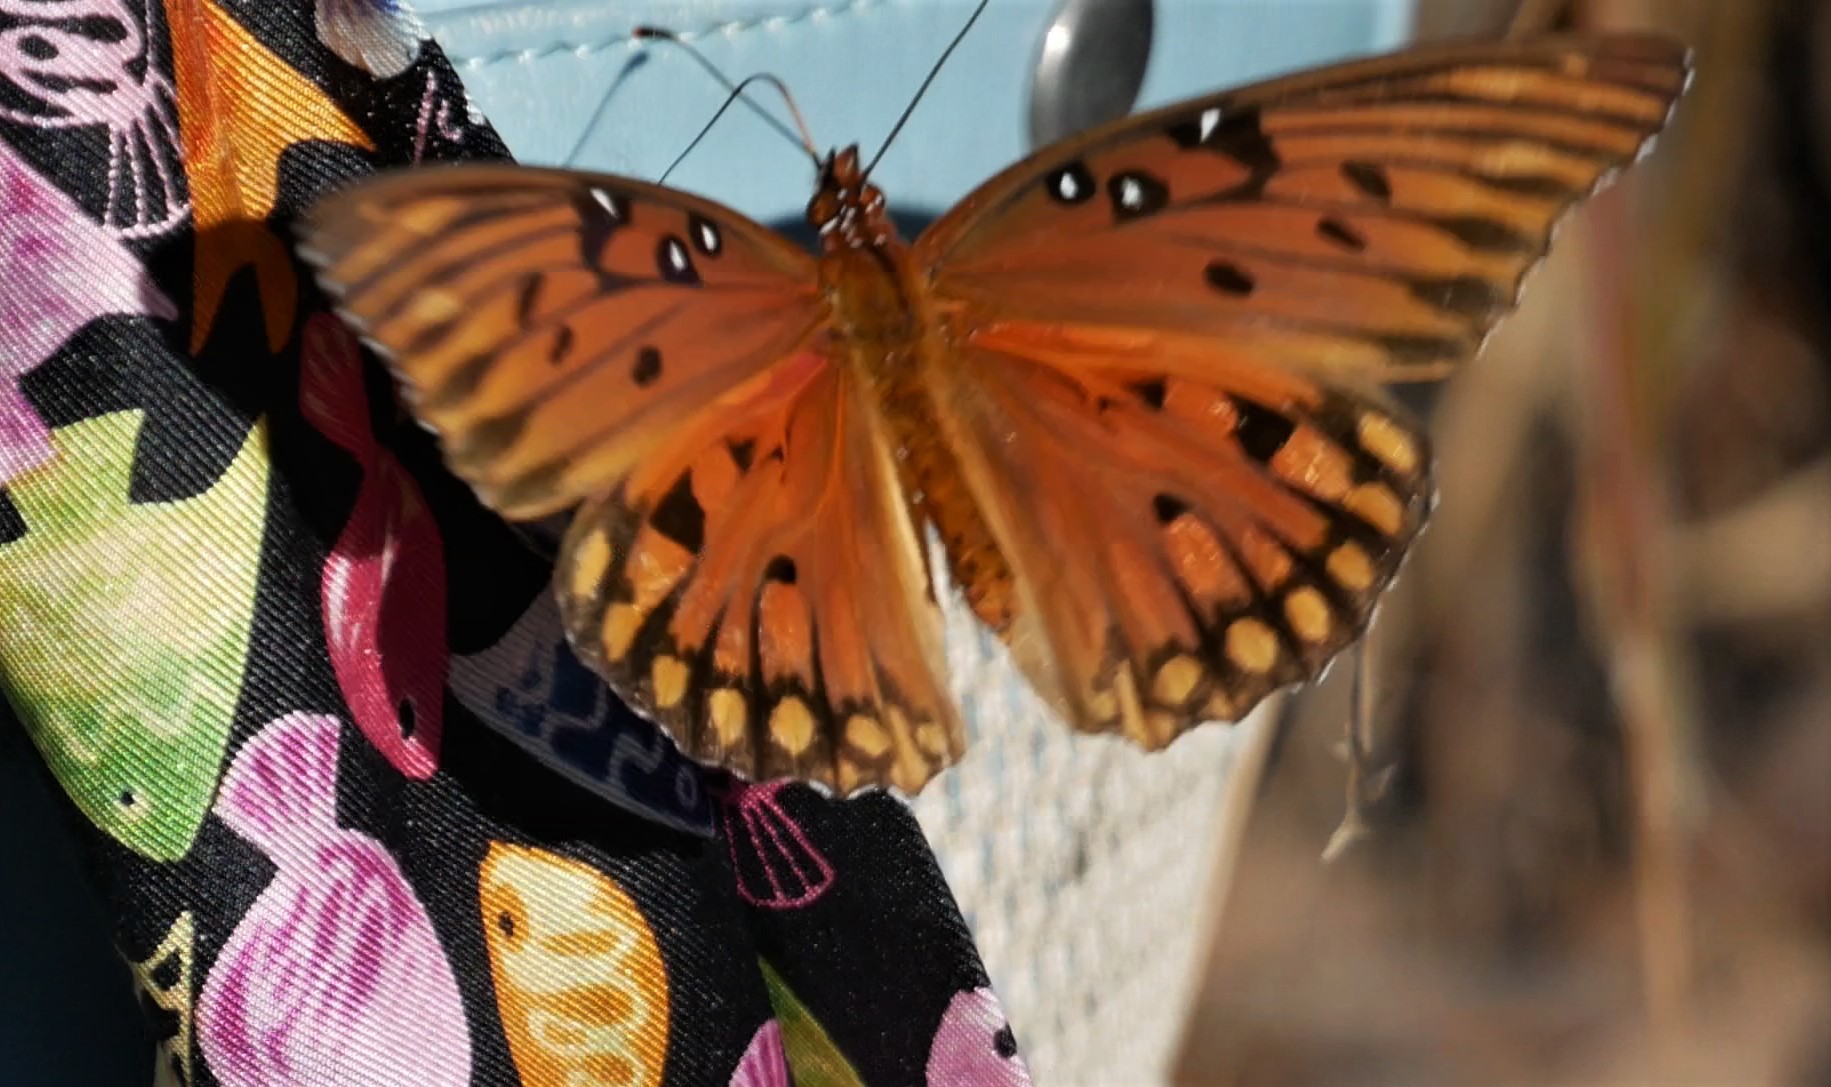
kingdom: Animalia
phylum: Arthropoda
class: Insecta
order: Lepidoptera
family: Nymphalidae
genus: Dione
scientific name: Dione vanillae
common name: Gulf fritillary
